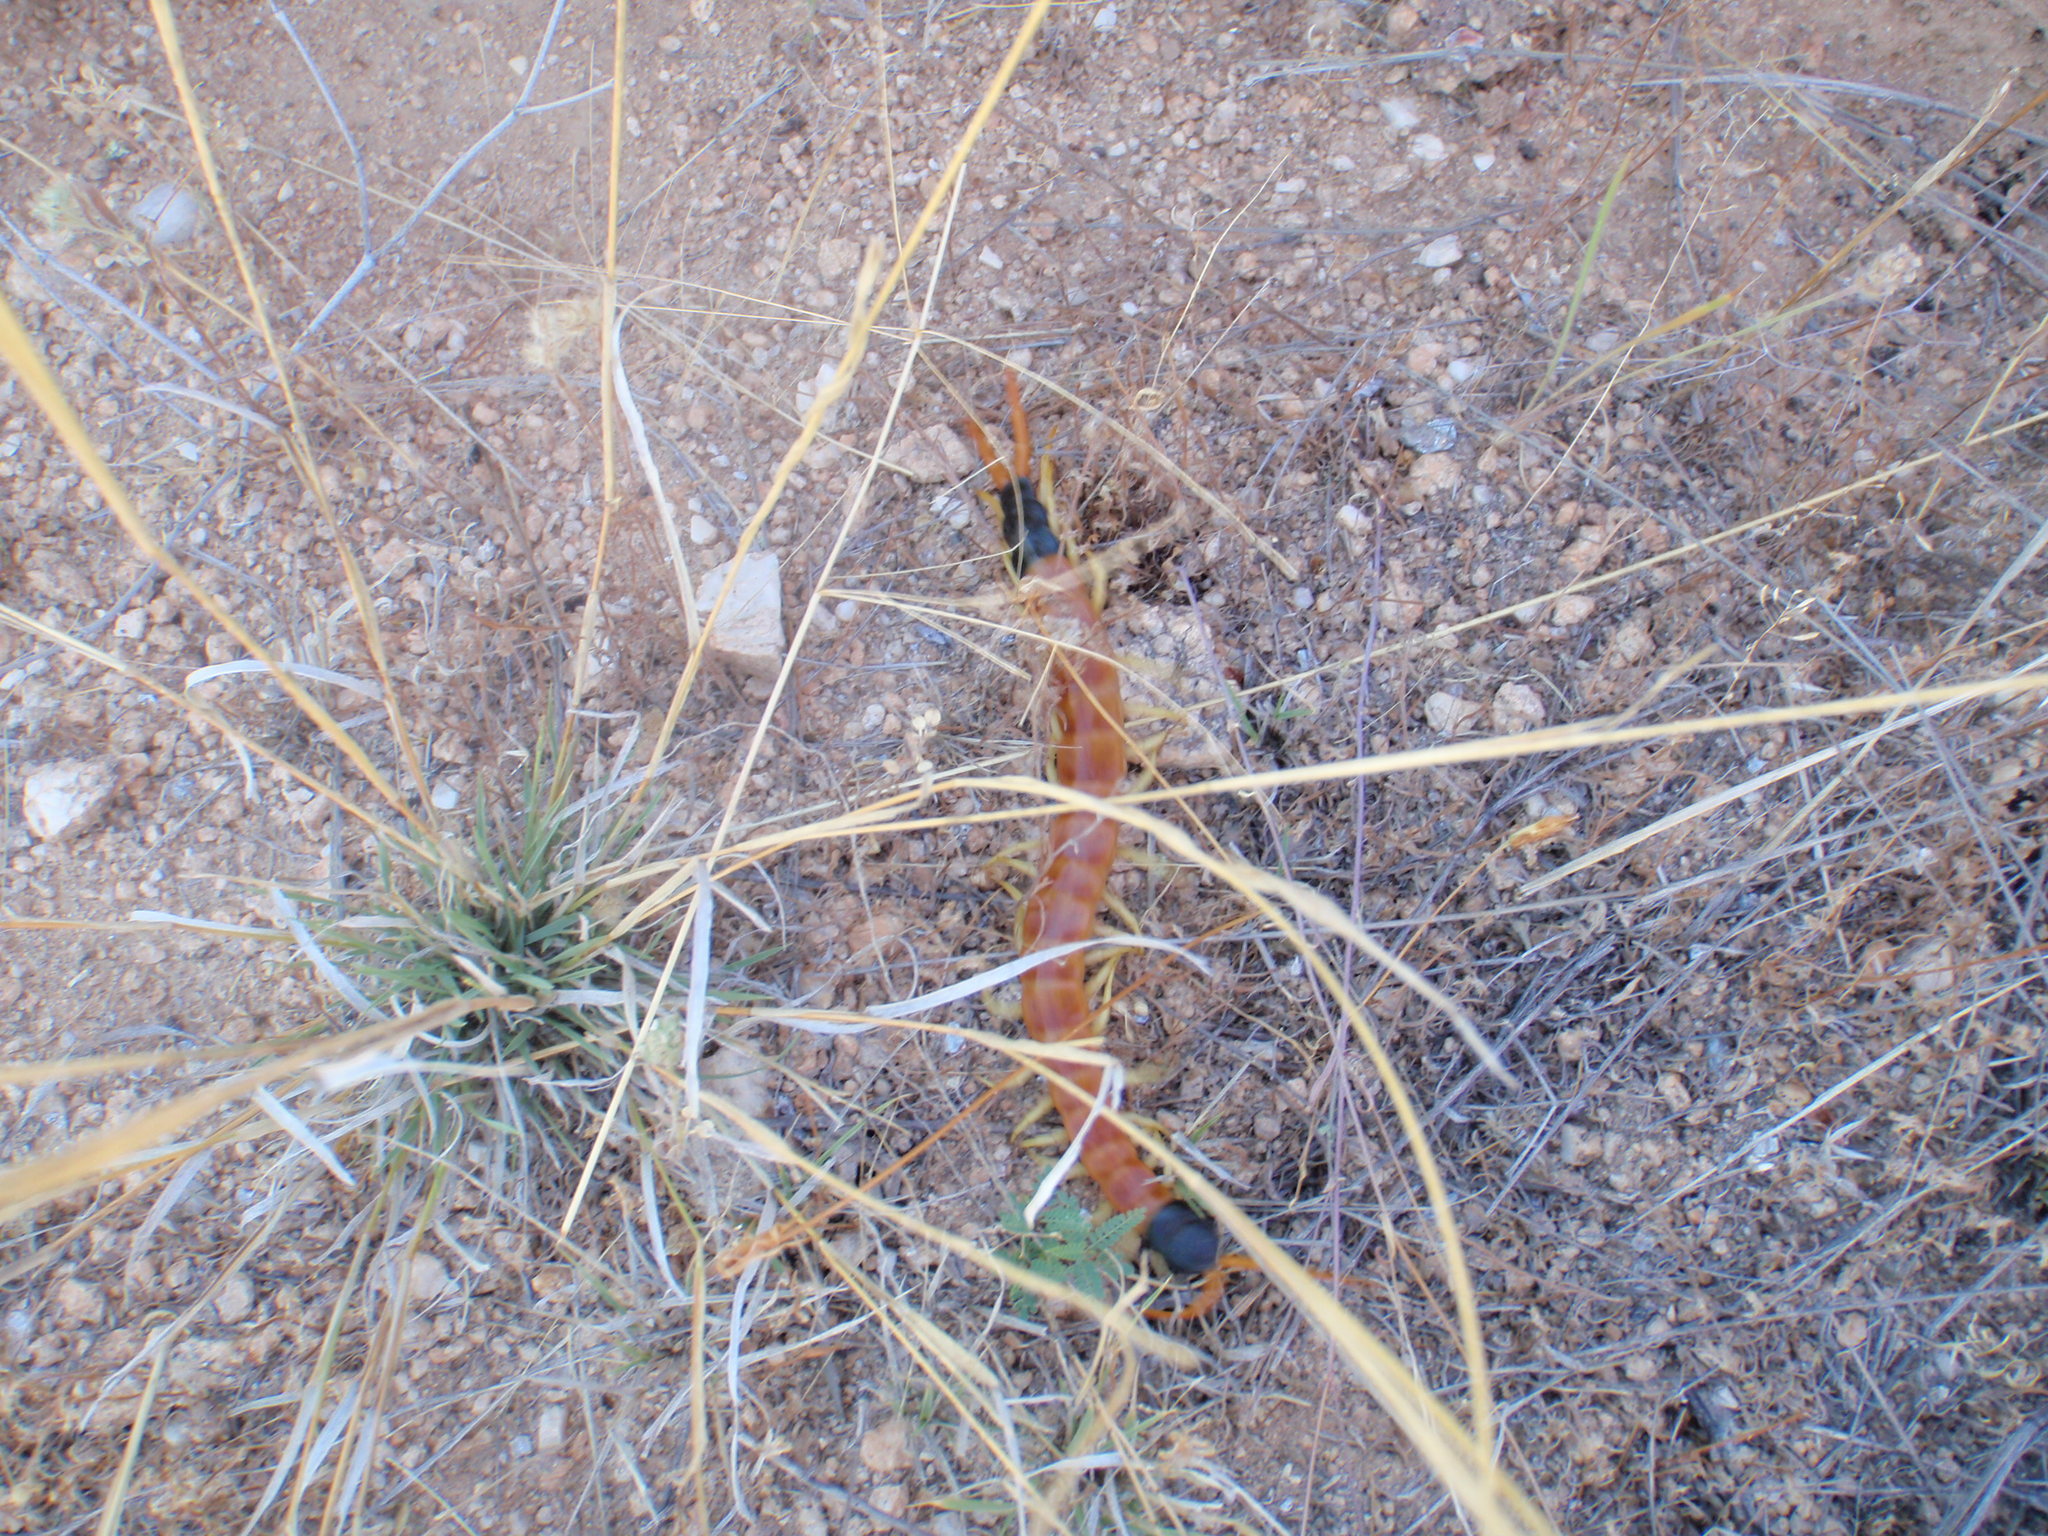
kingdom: Animalia
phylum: Arthropoda
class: Chilopoda
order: Scolopendromorpha
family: Scolopendridae
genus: Scolopendra
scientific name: Scolopendra heros
